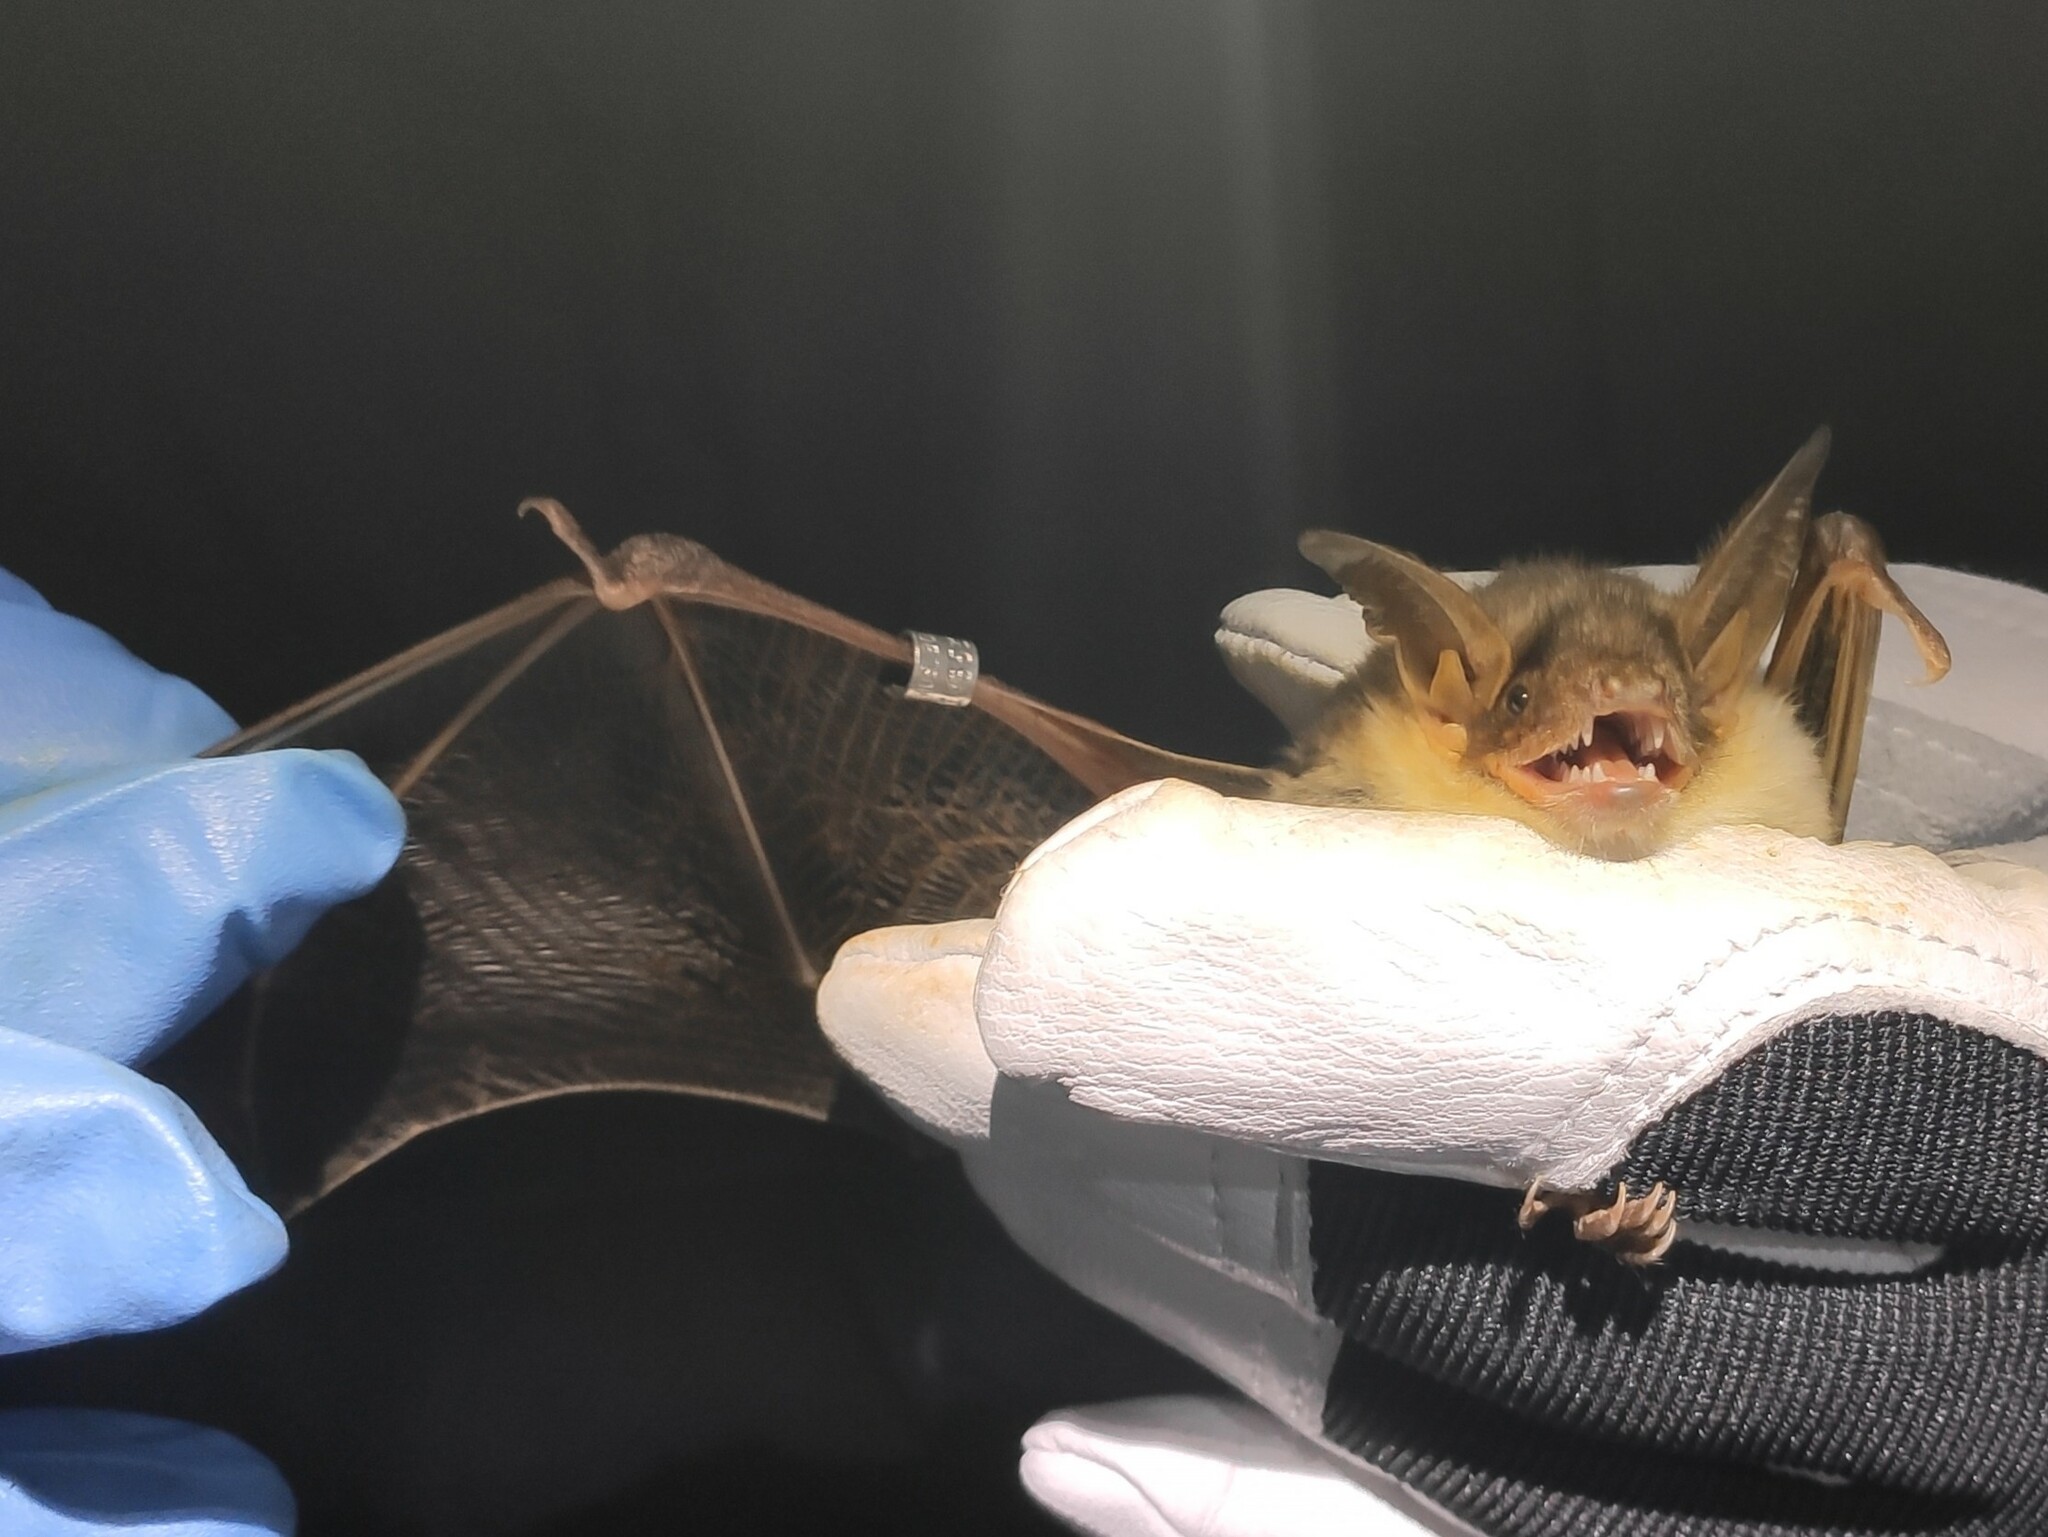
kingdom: Animalia
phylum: Chordata
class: Mammalia
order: Chiroptera
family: Vespertilionidae
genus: Myotis
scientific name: Myotis myotis
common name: Greater mouse-eared bat
